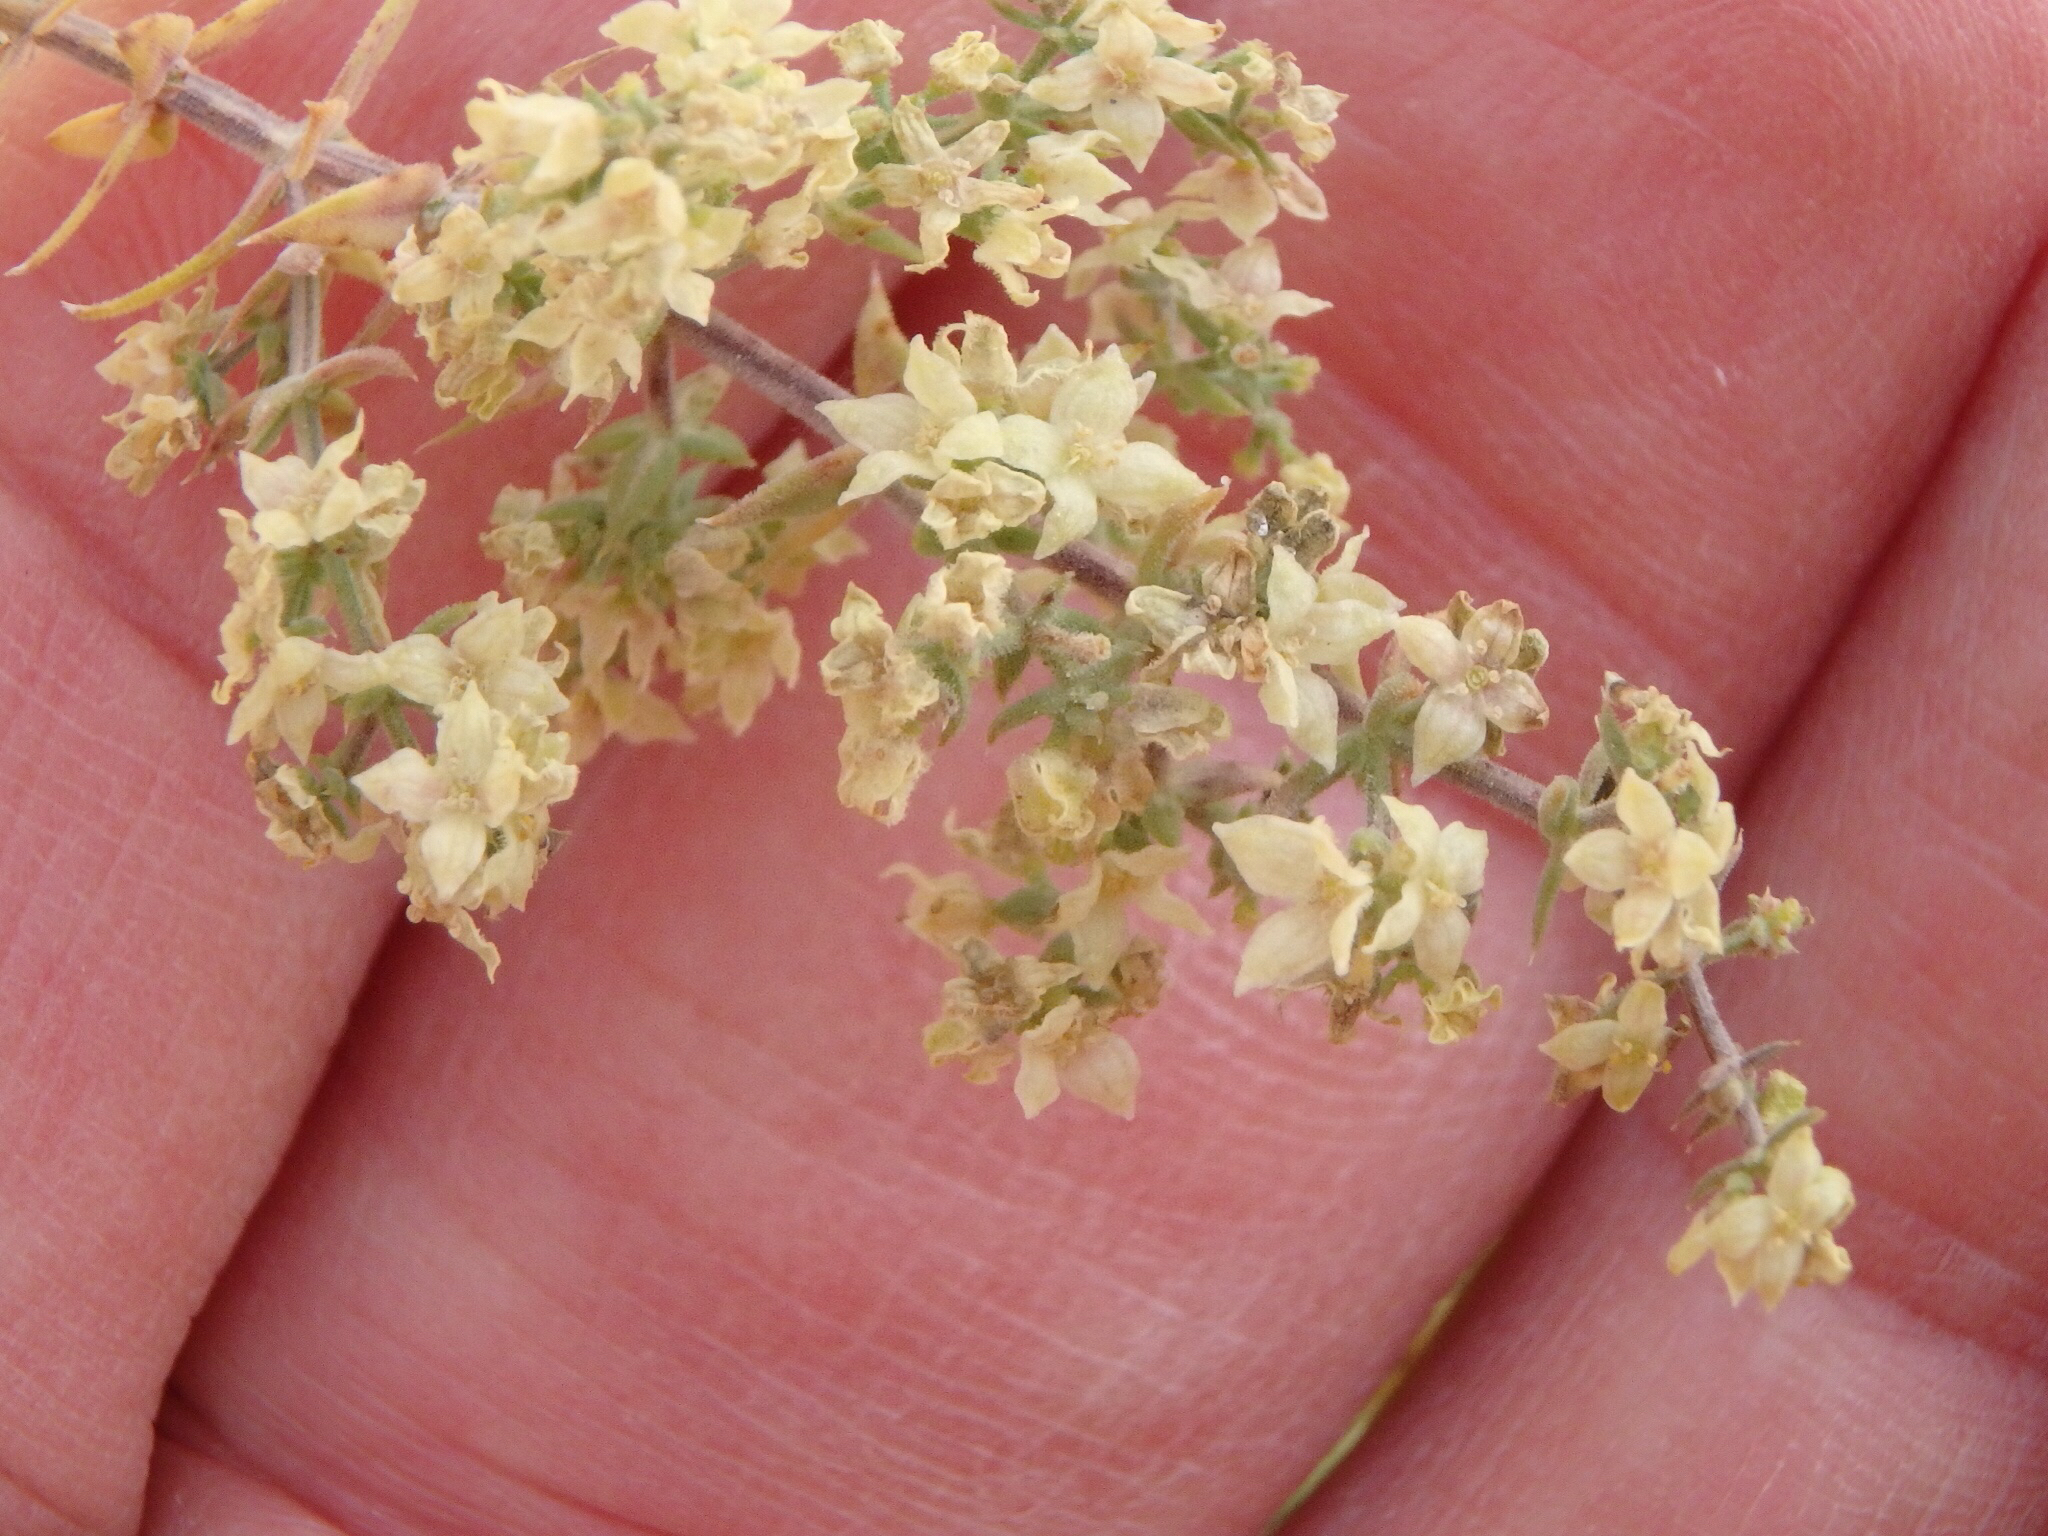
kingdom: Plantae
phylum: Tracheophyta
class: Magnoliopsida
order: Gentianales
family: Rubiaceae
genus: Galium
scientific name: Galium stellatum
